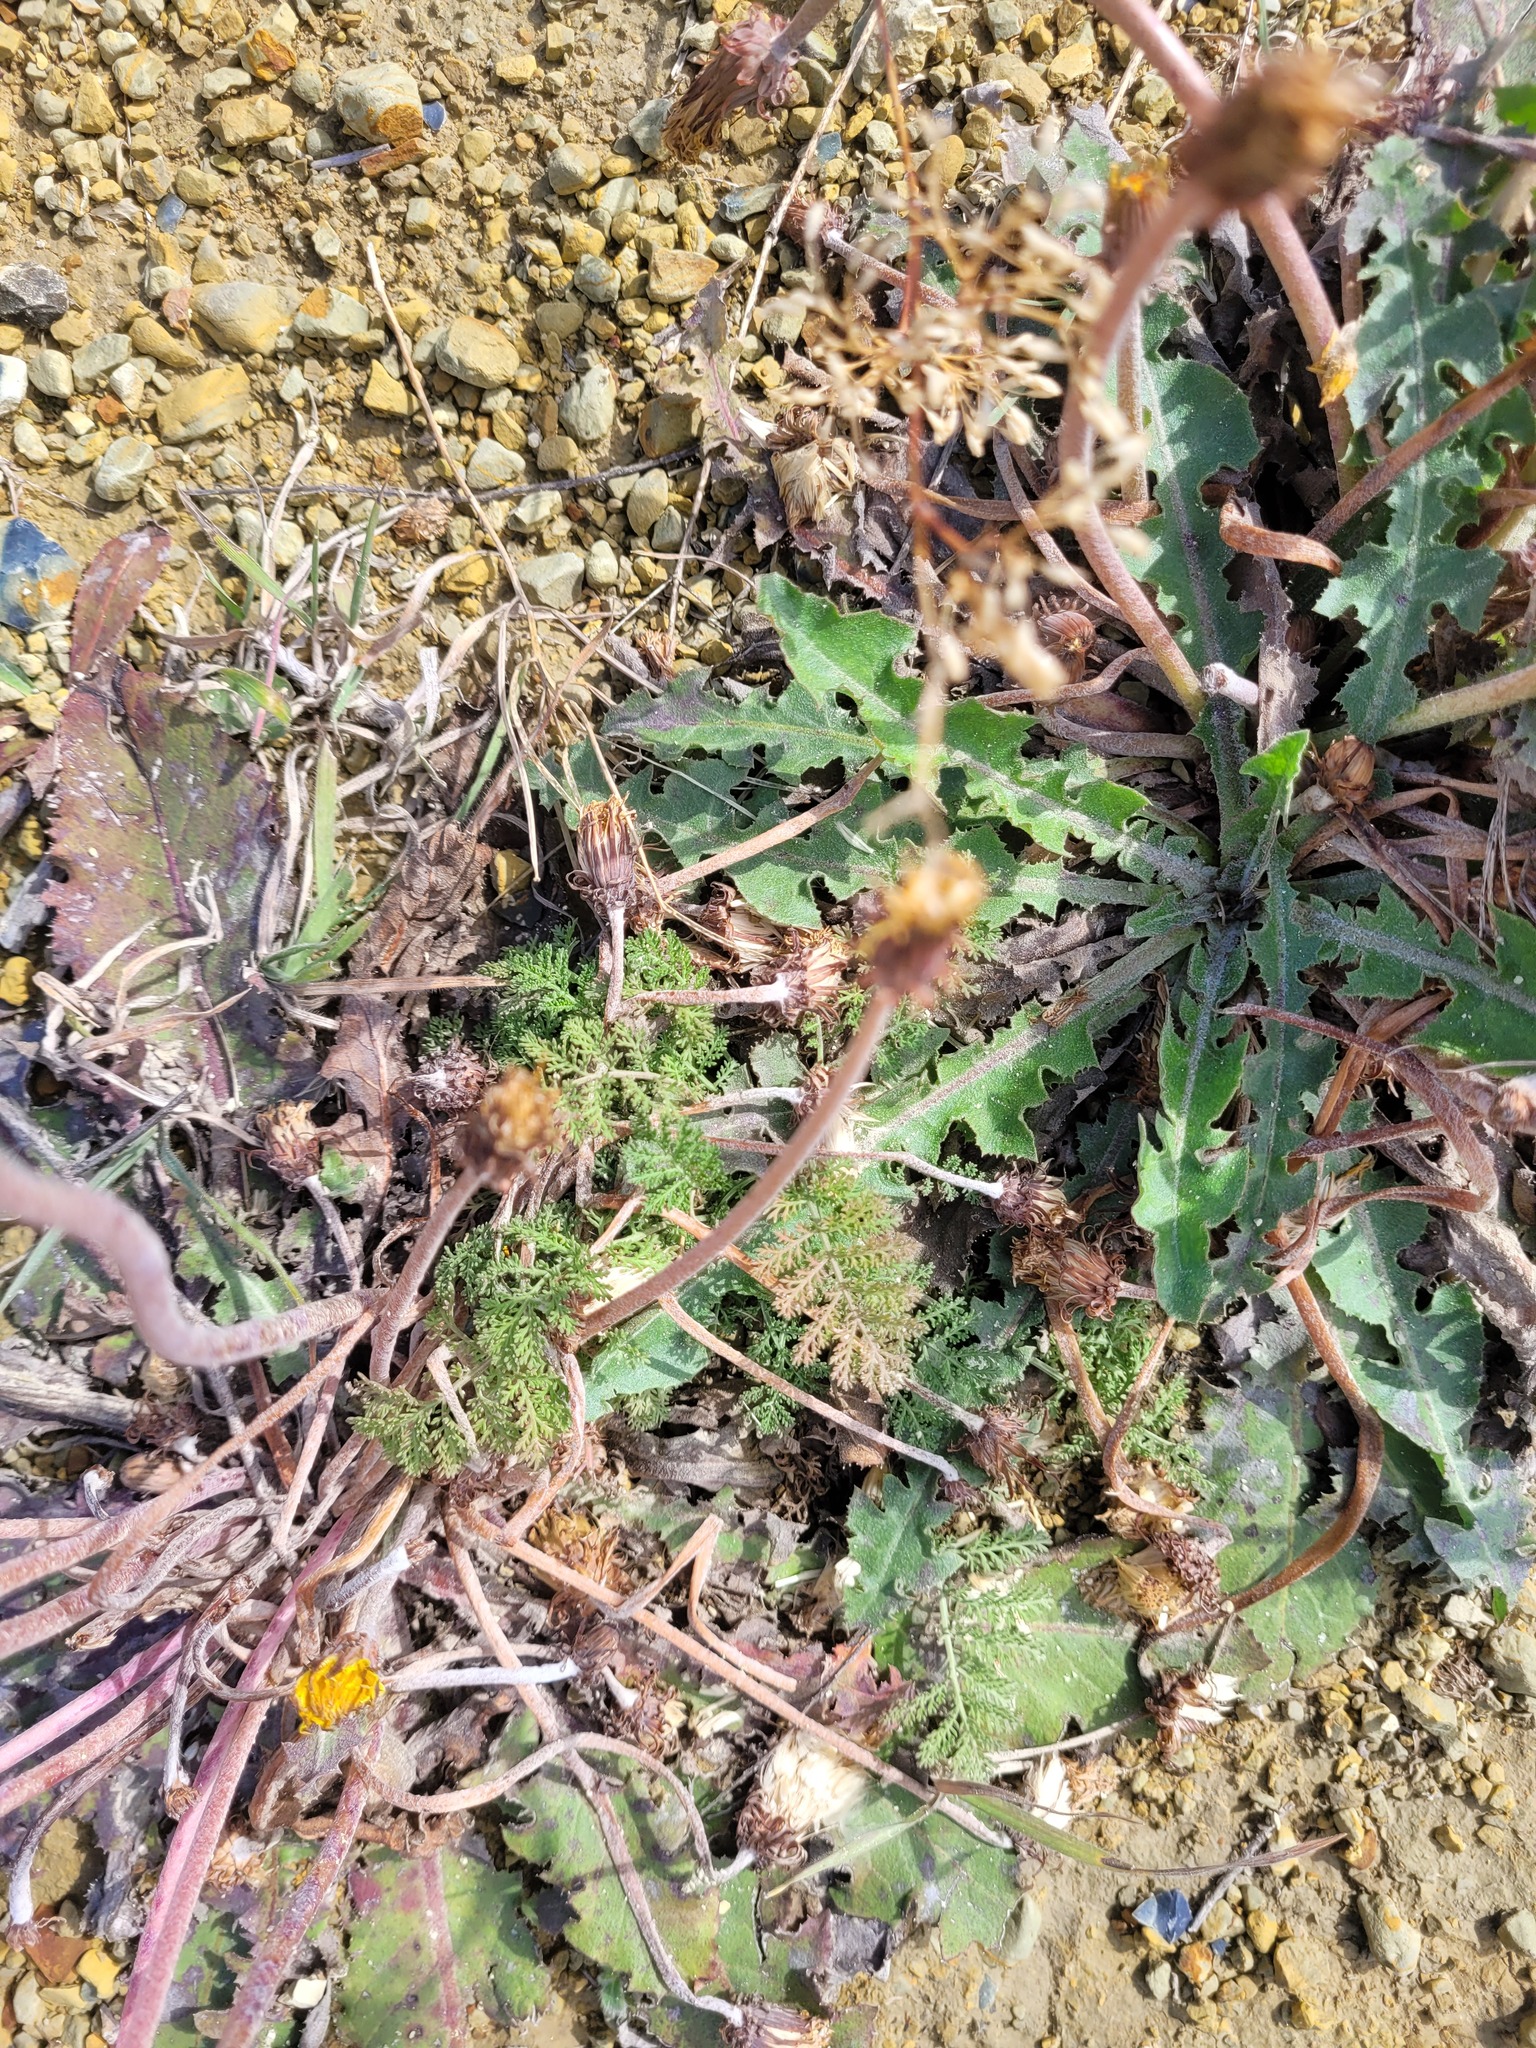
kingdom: Plantae
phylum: Tracheophyta
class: Magnoliopsida
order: Asterales
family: Asteraceae
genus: Achillea
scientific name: Achillea nobilis
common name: Noble yarrow
